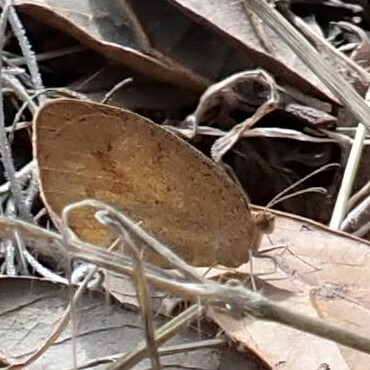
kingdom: Animalia
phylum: Arthropoda
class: Insecta
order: Lepidoptera
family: Pieridae
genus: Abaeis
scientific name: Abaeis nicippe
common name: Sleepy orange
